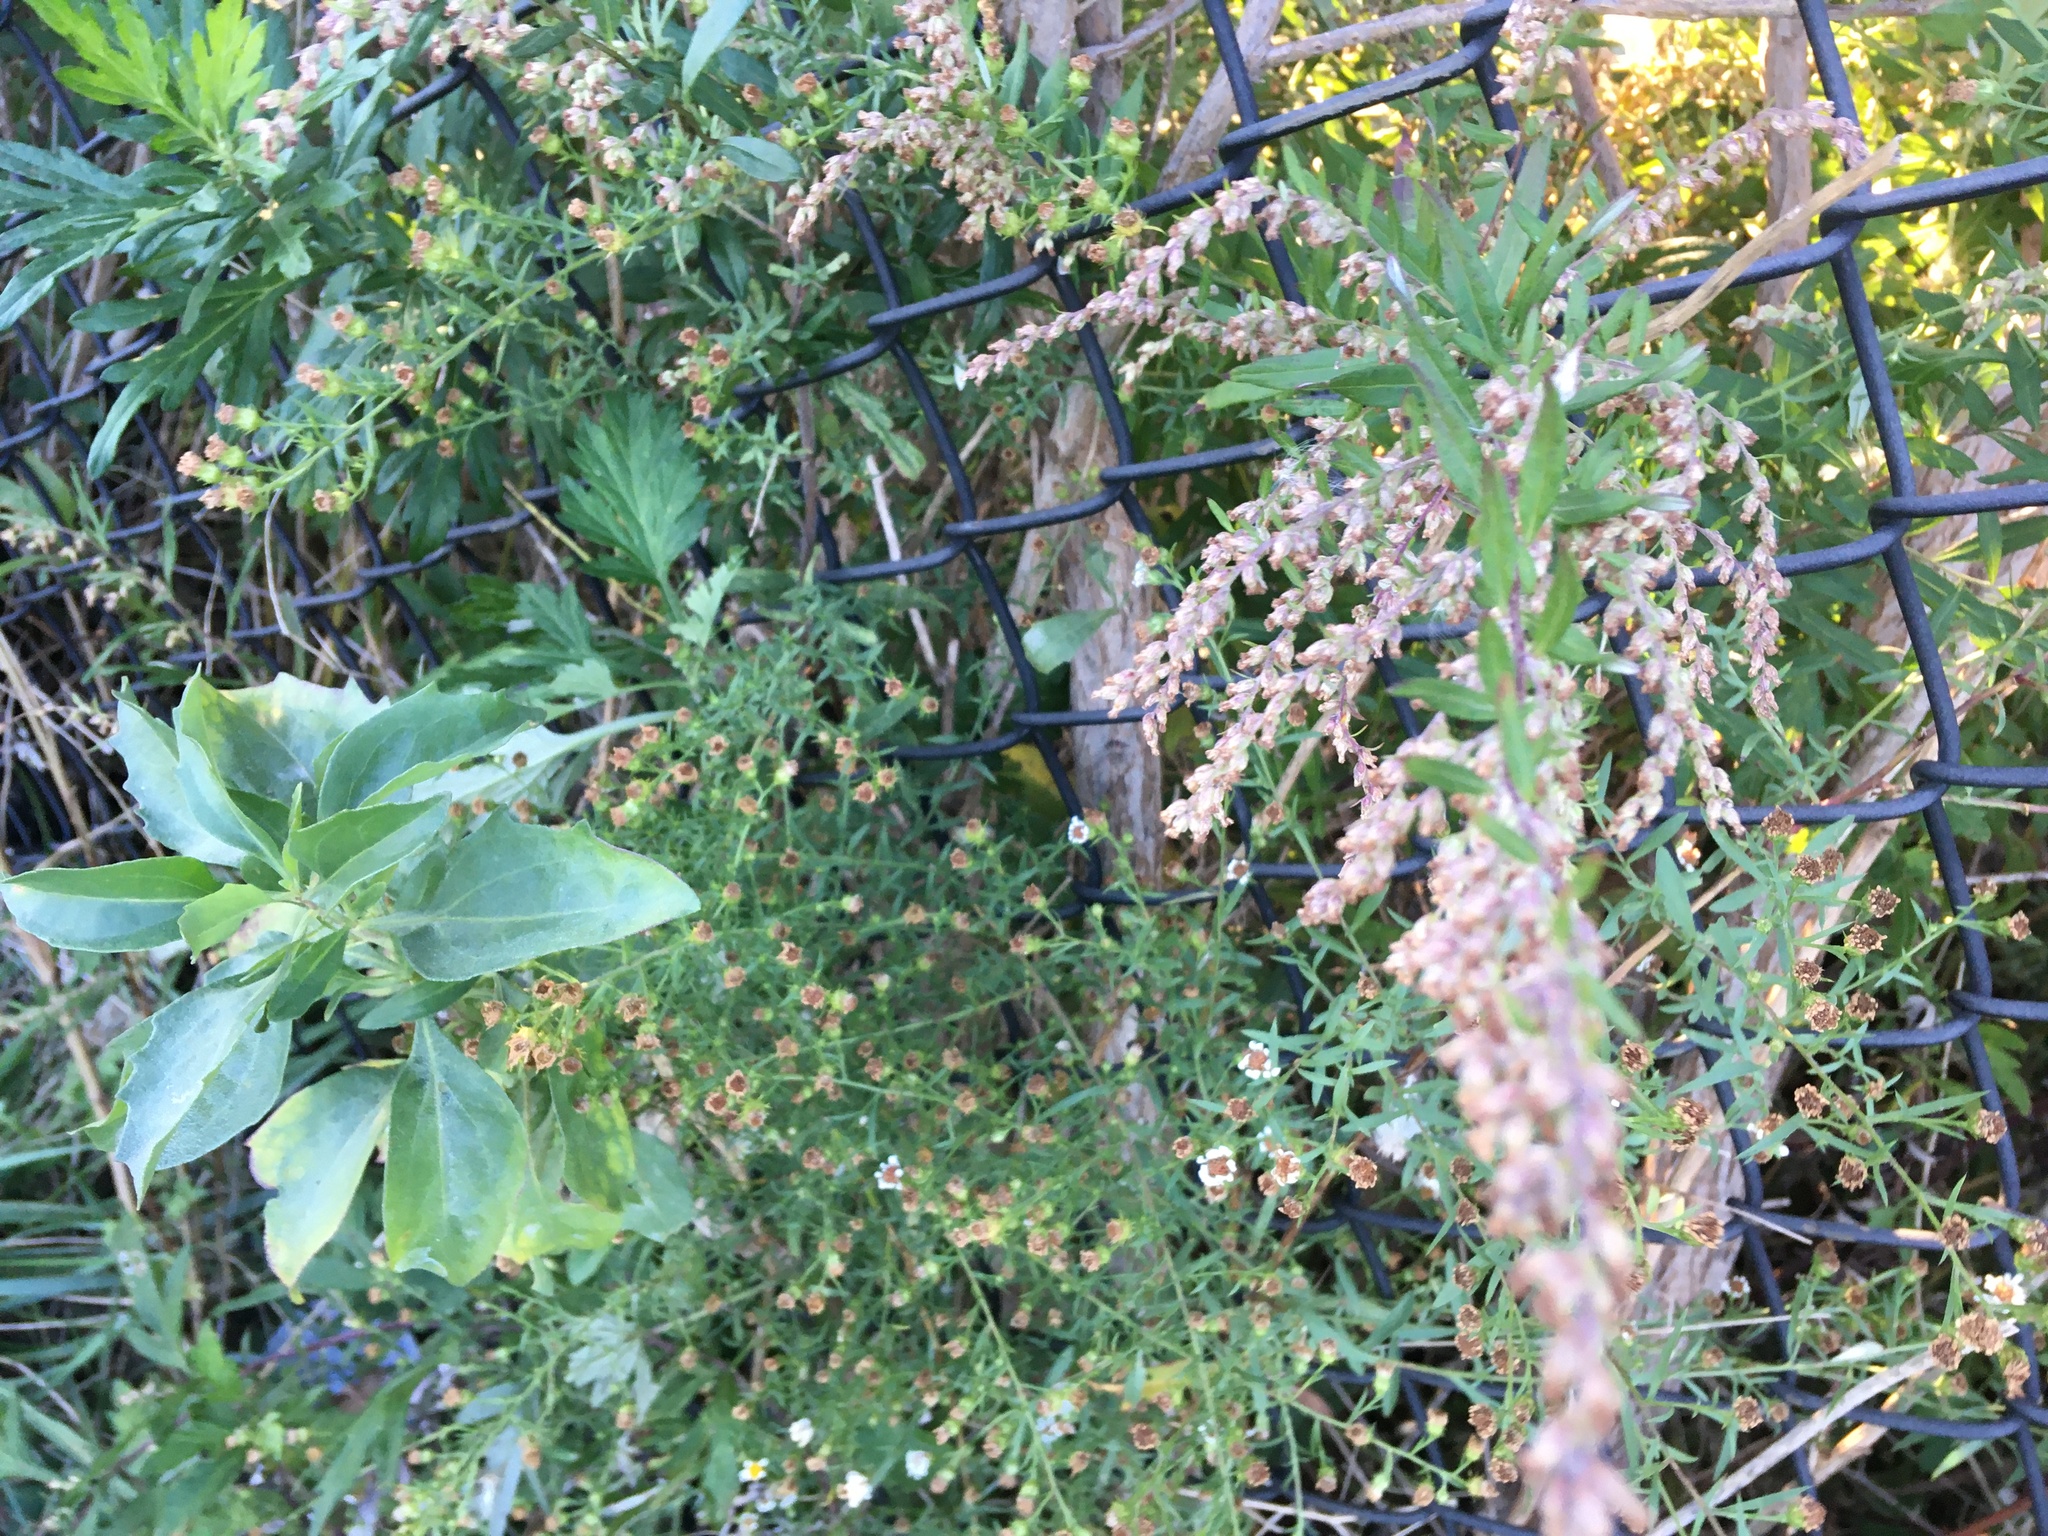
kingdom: Plantae
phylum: Tracheophyta
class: Magnoliopsida
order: Asterales
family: Asteraceae
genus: Artemisia
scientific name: Artemisia vulgaris
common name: Mugwort
